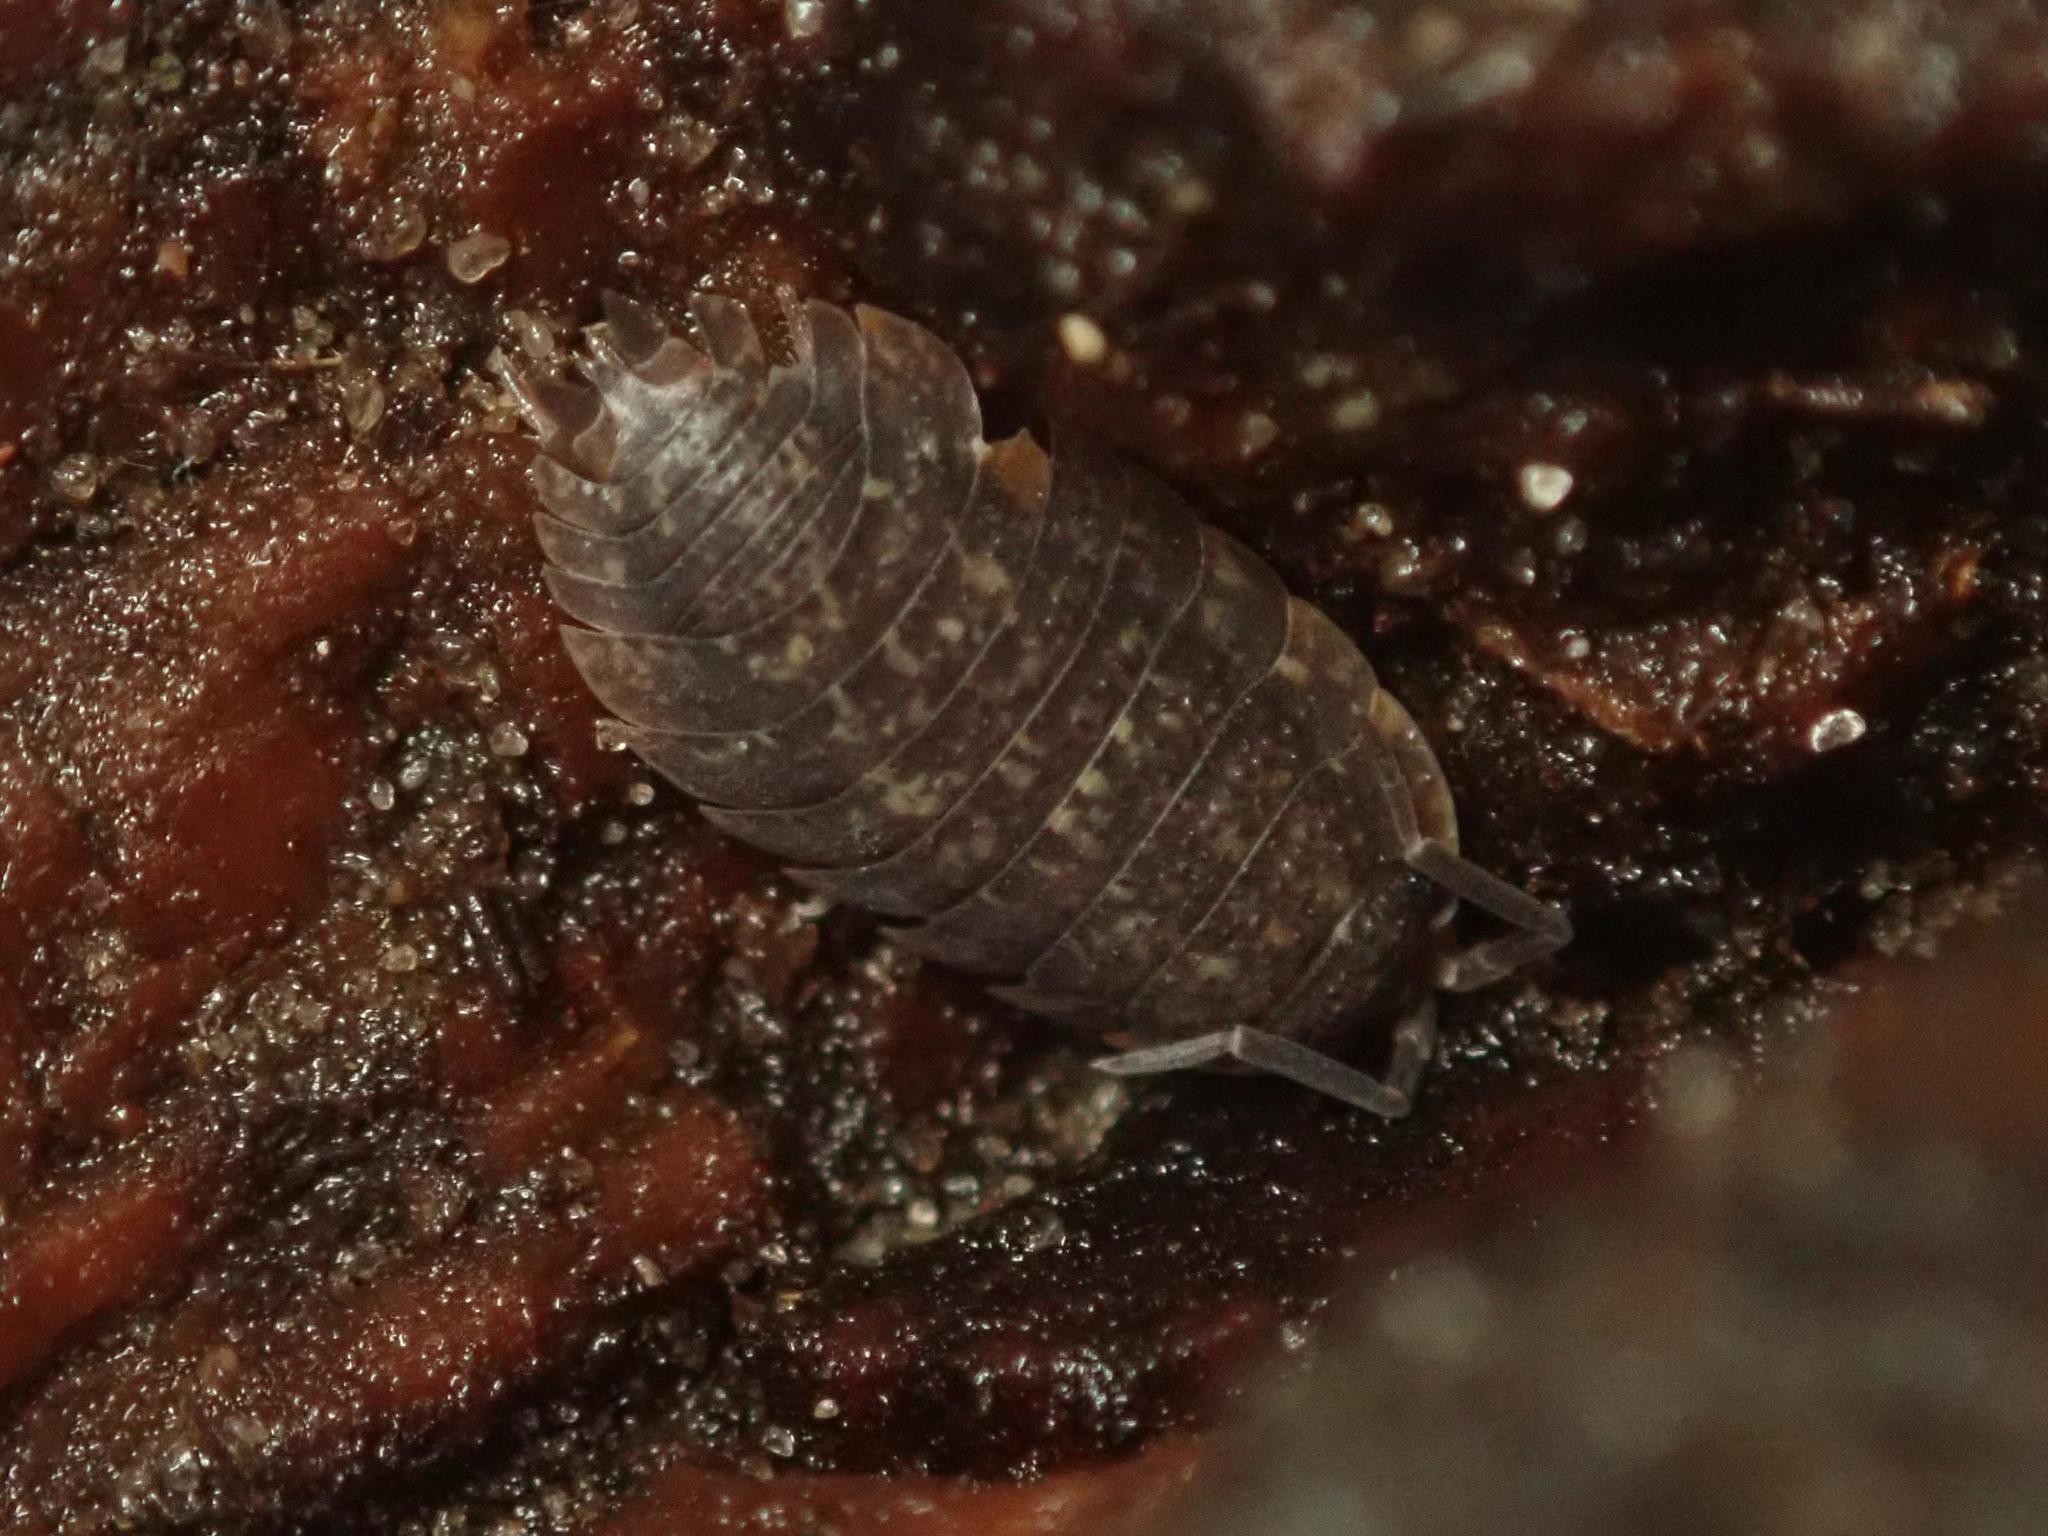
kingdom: Animalia
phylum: Arthropoda
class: Malacostraca
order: Isopoda
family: Porcellionidae
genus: Porcellio
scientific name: Porcellio scaber
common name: Common rough woodlouse
